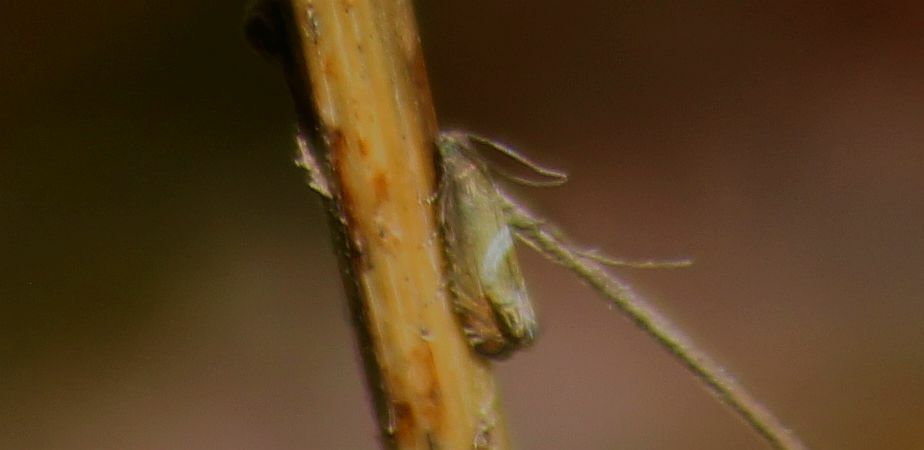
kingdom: Animalia
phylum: Arthropoda
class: Insecta
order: Lepidoptera
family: Tortricidae
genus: Grapholita
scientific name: Grapholita
